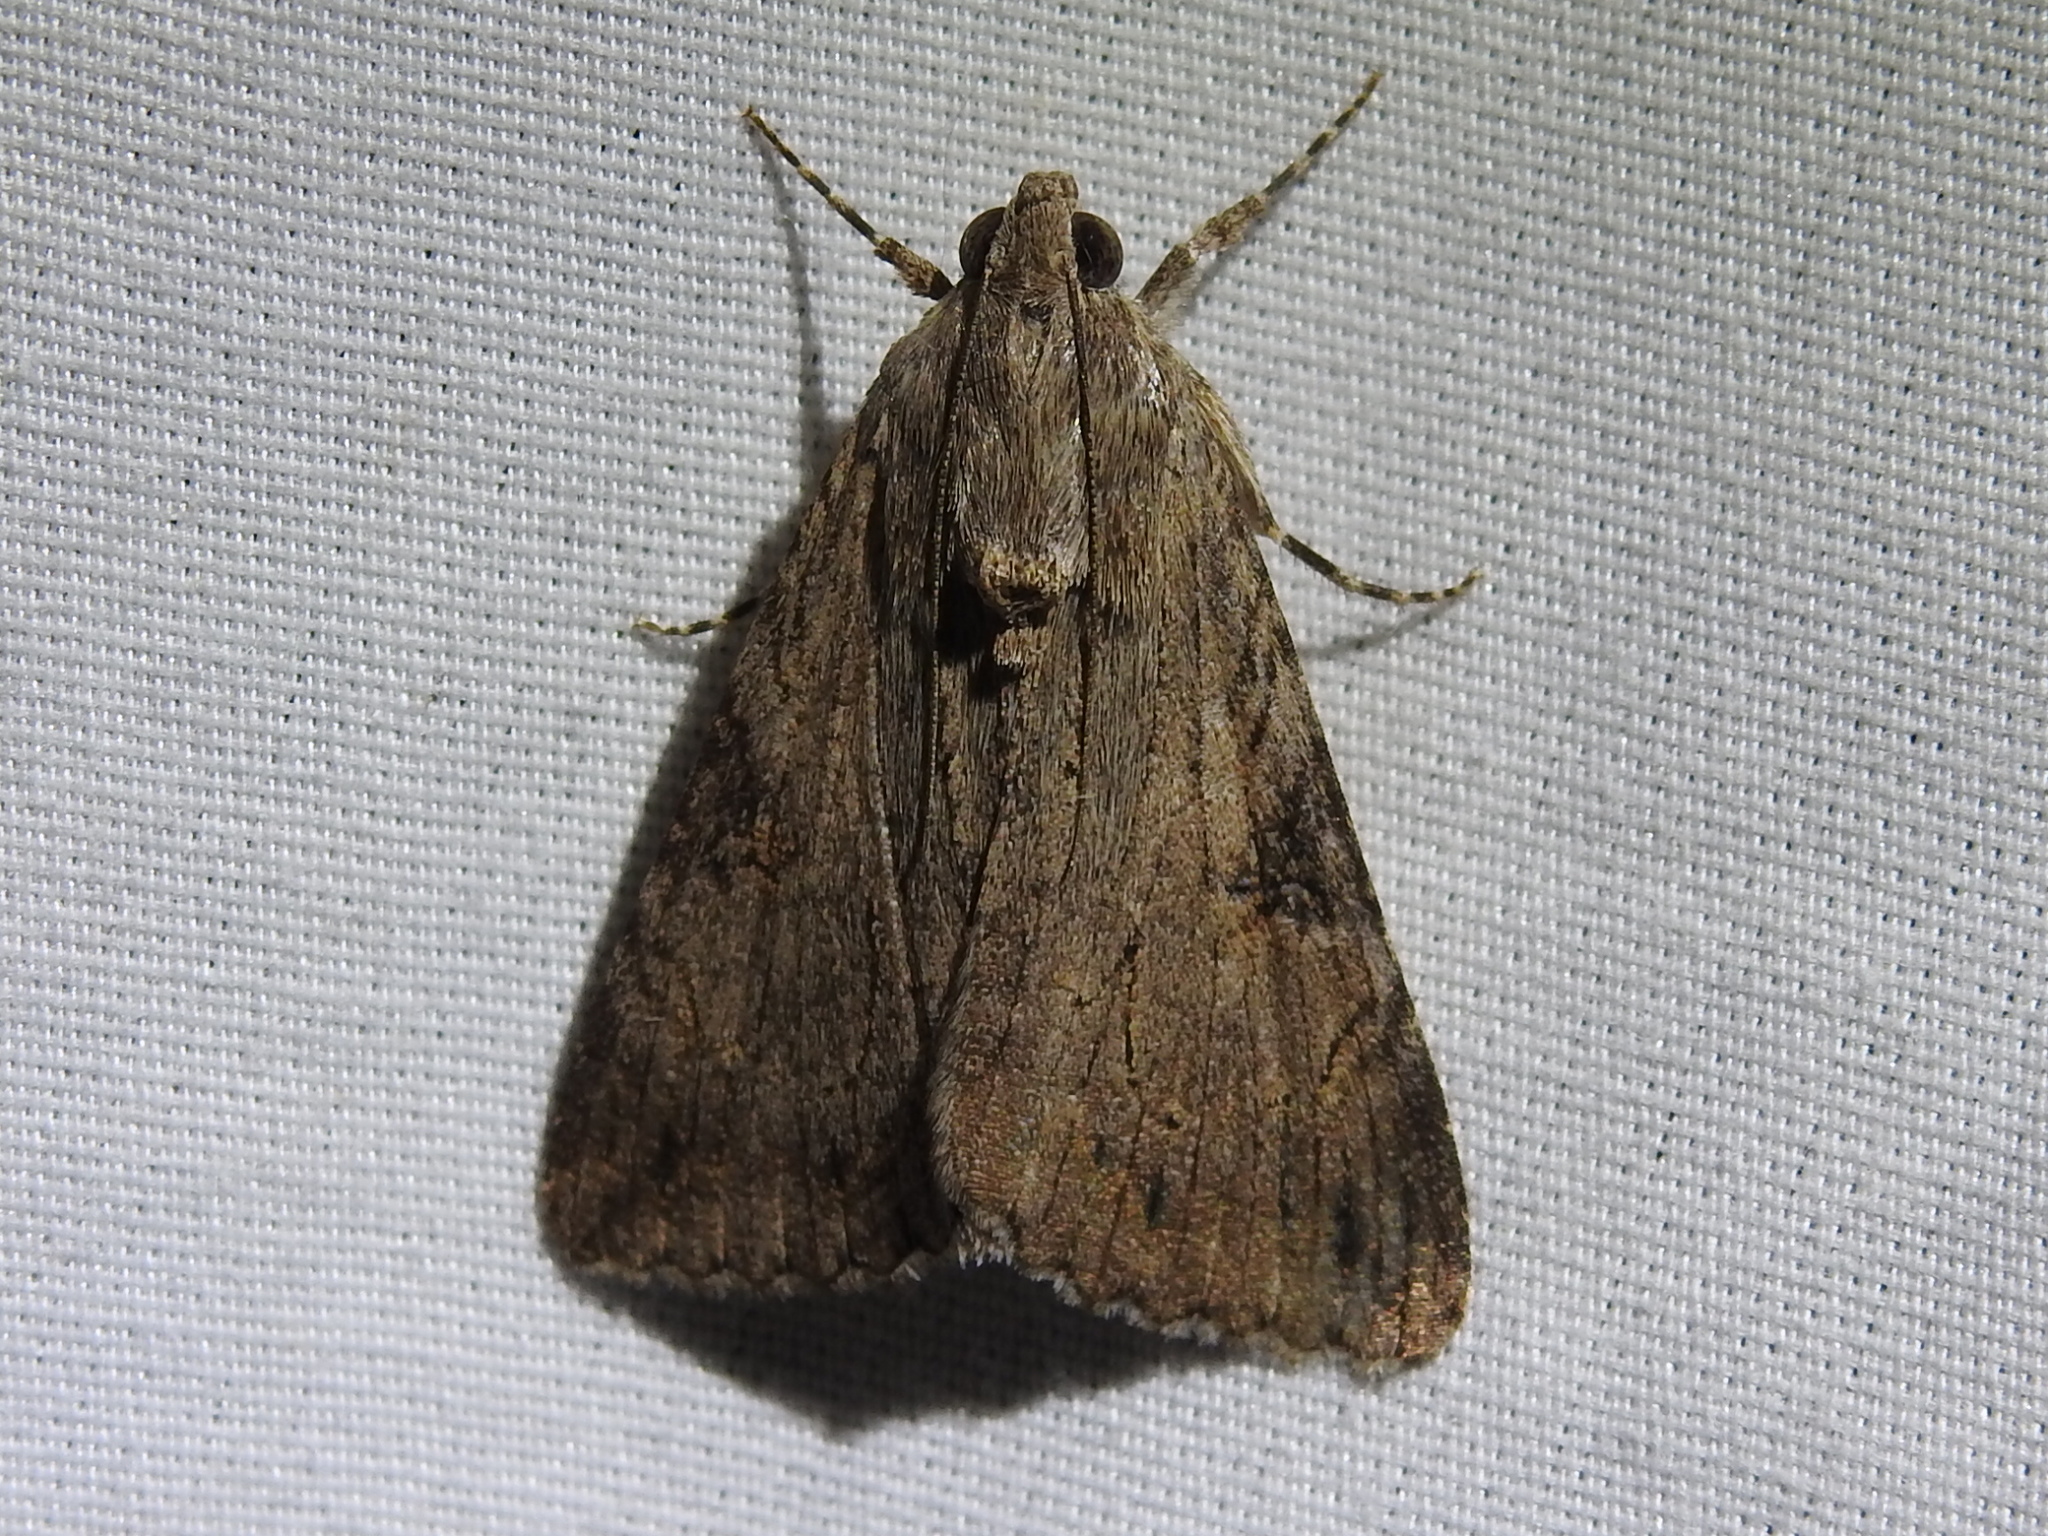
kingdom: Animalia
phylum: Arthropoda
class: Insecta
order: Lepidoptera
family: Erebidae
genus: Melipotis
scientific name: Melipotis jucunda
